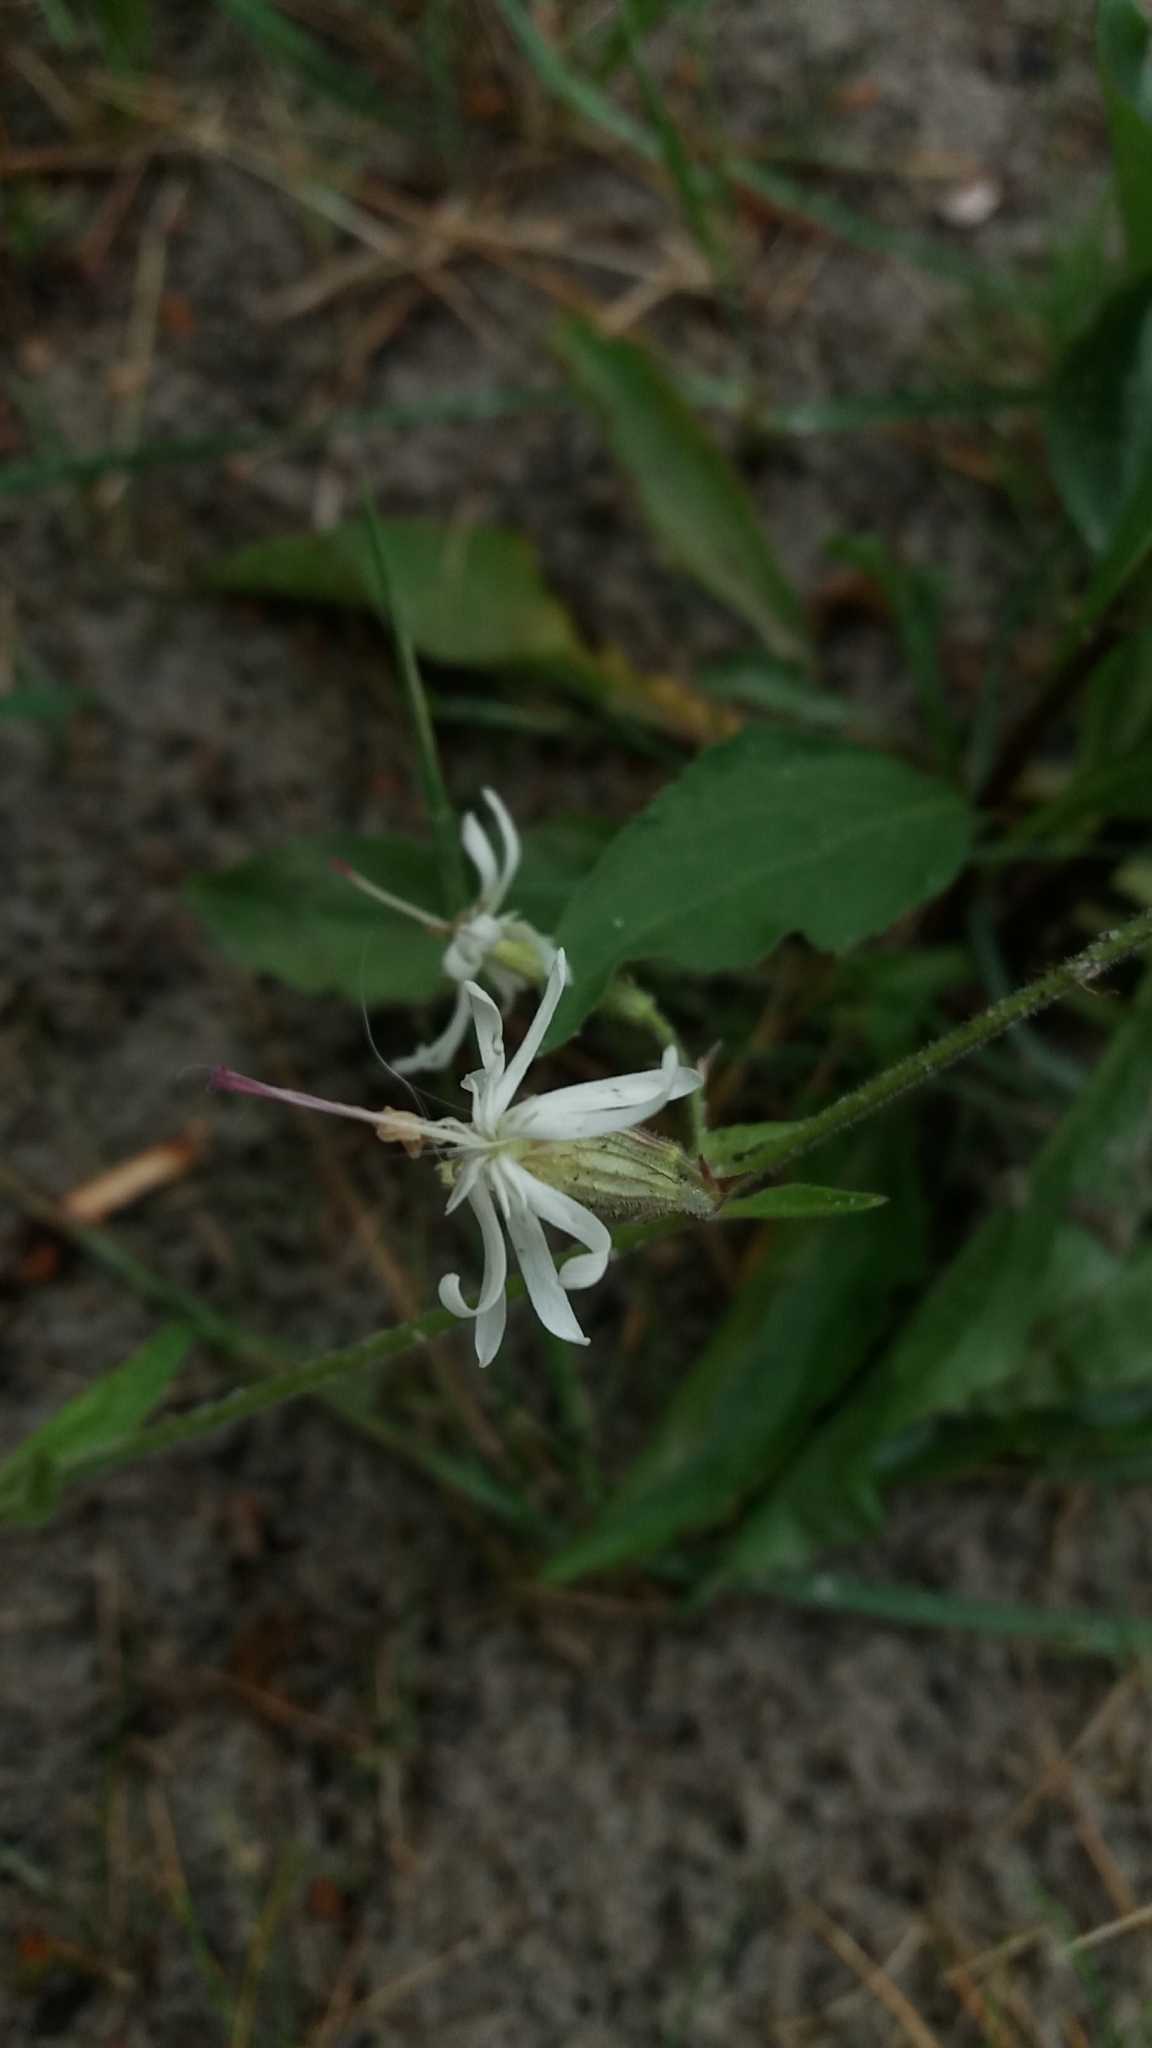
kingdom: Plantae
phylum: Tracheophyta
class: Magnoliopsida
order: Caryophyllales
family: Caryophyllaceae
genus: Silene
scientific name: Silene nutans
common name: Nottingham catchfly
